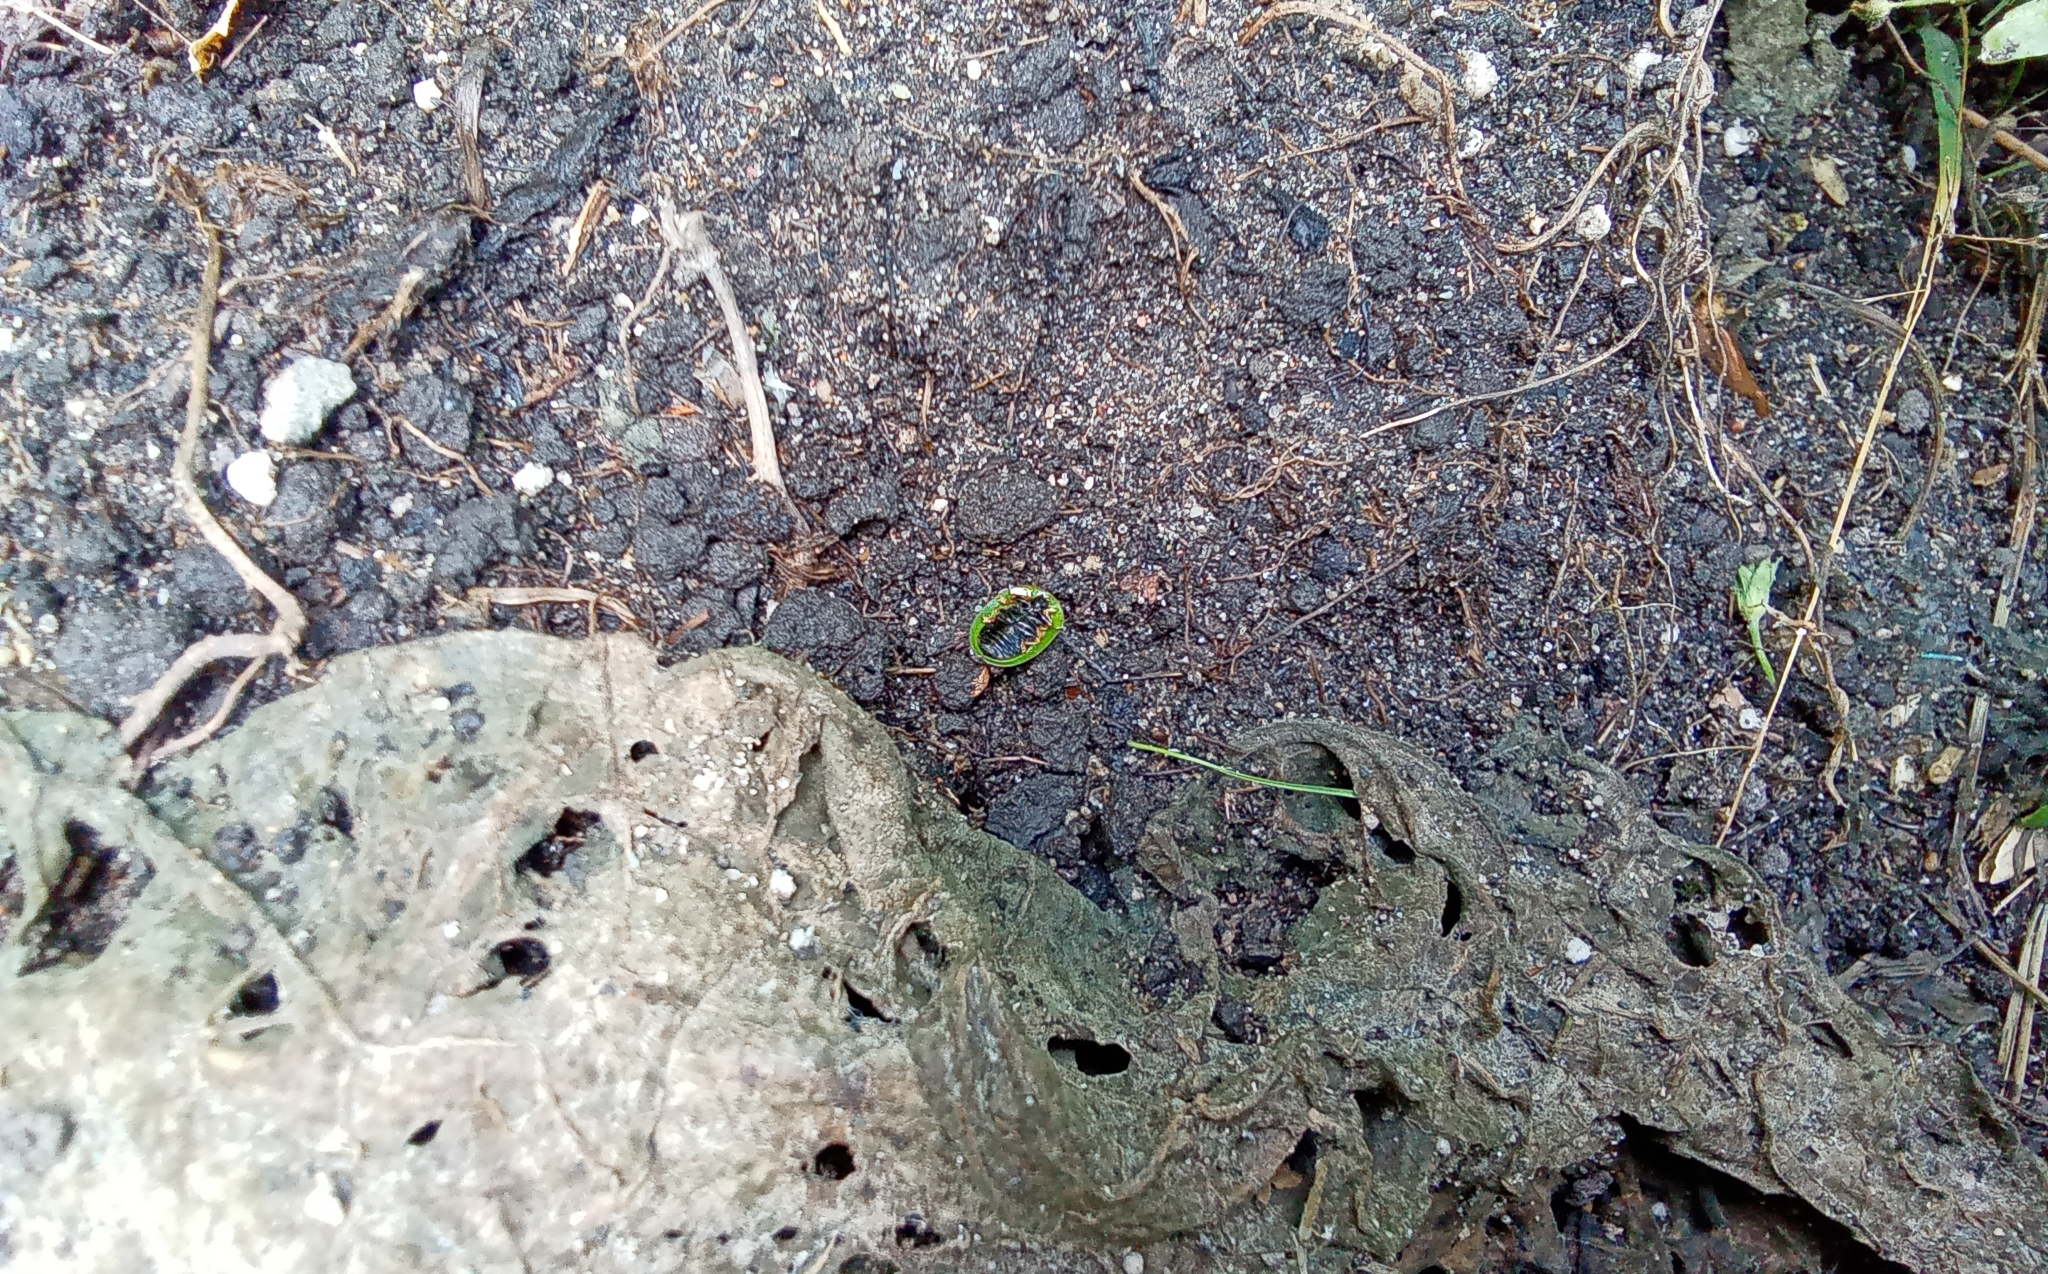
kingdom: Animalia
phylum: Arthropoda
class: Insecta
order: Coleoptera
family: Chrysomelidae
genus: Cassida
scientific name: Cassida rubiginosa
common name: Thistle tortoise beetle
